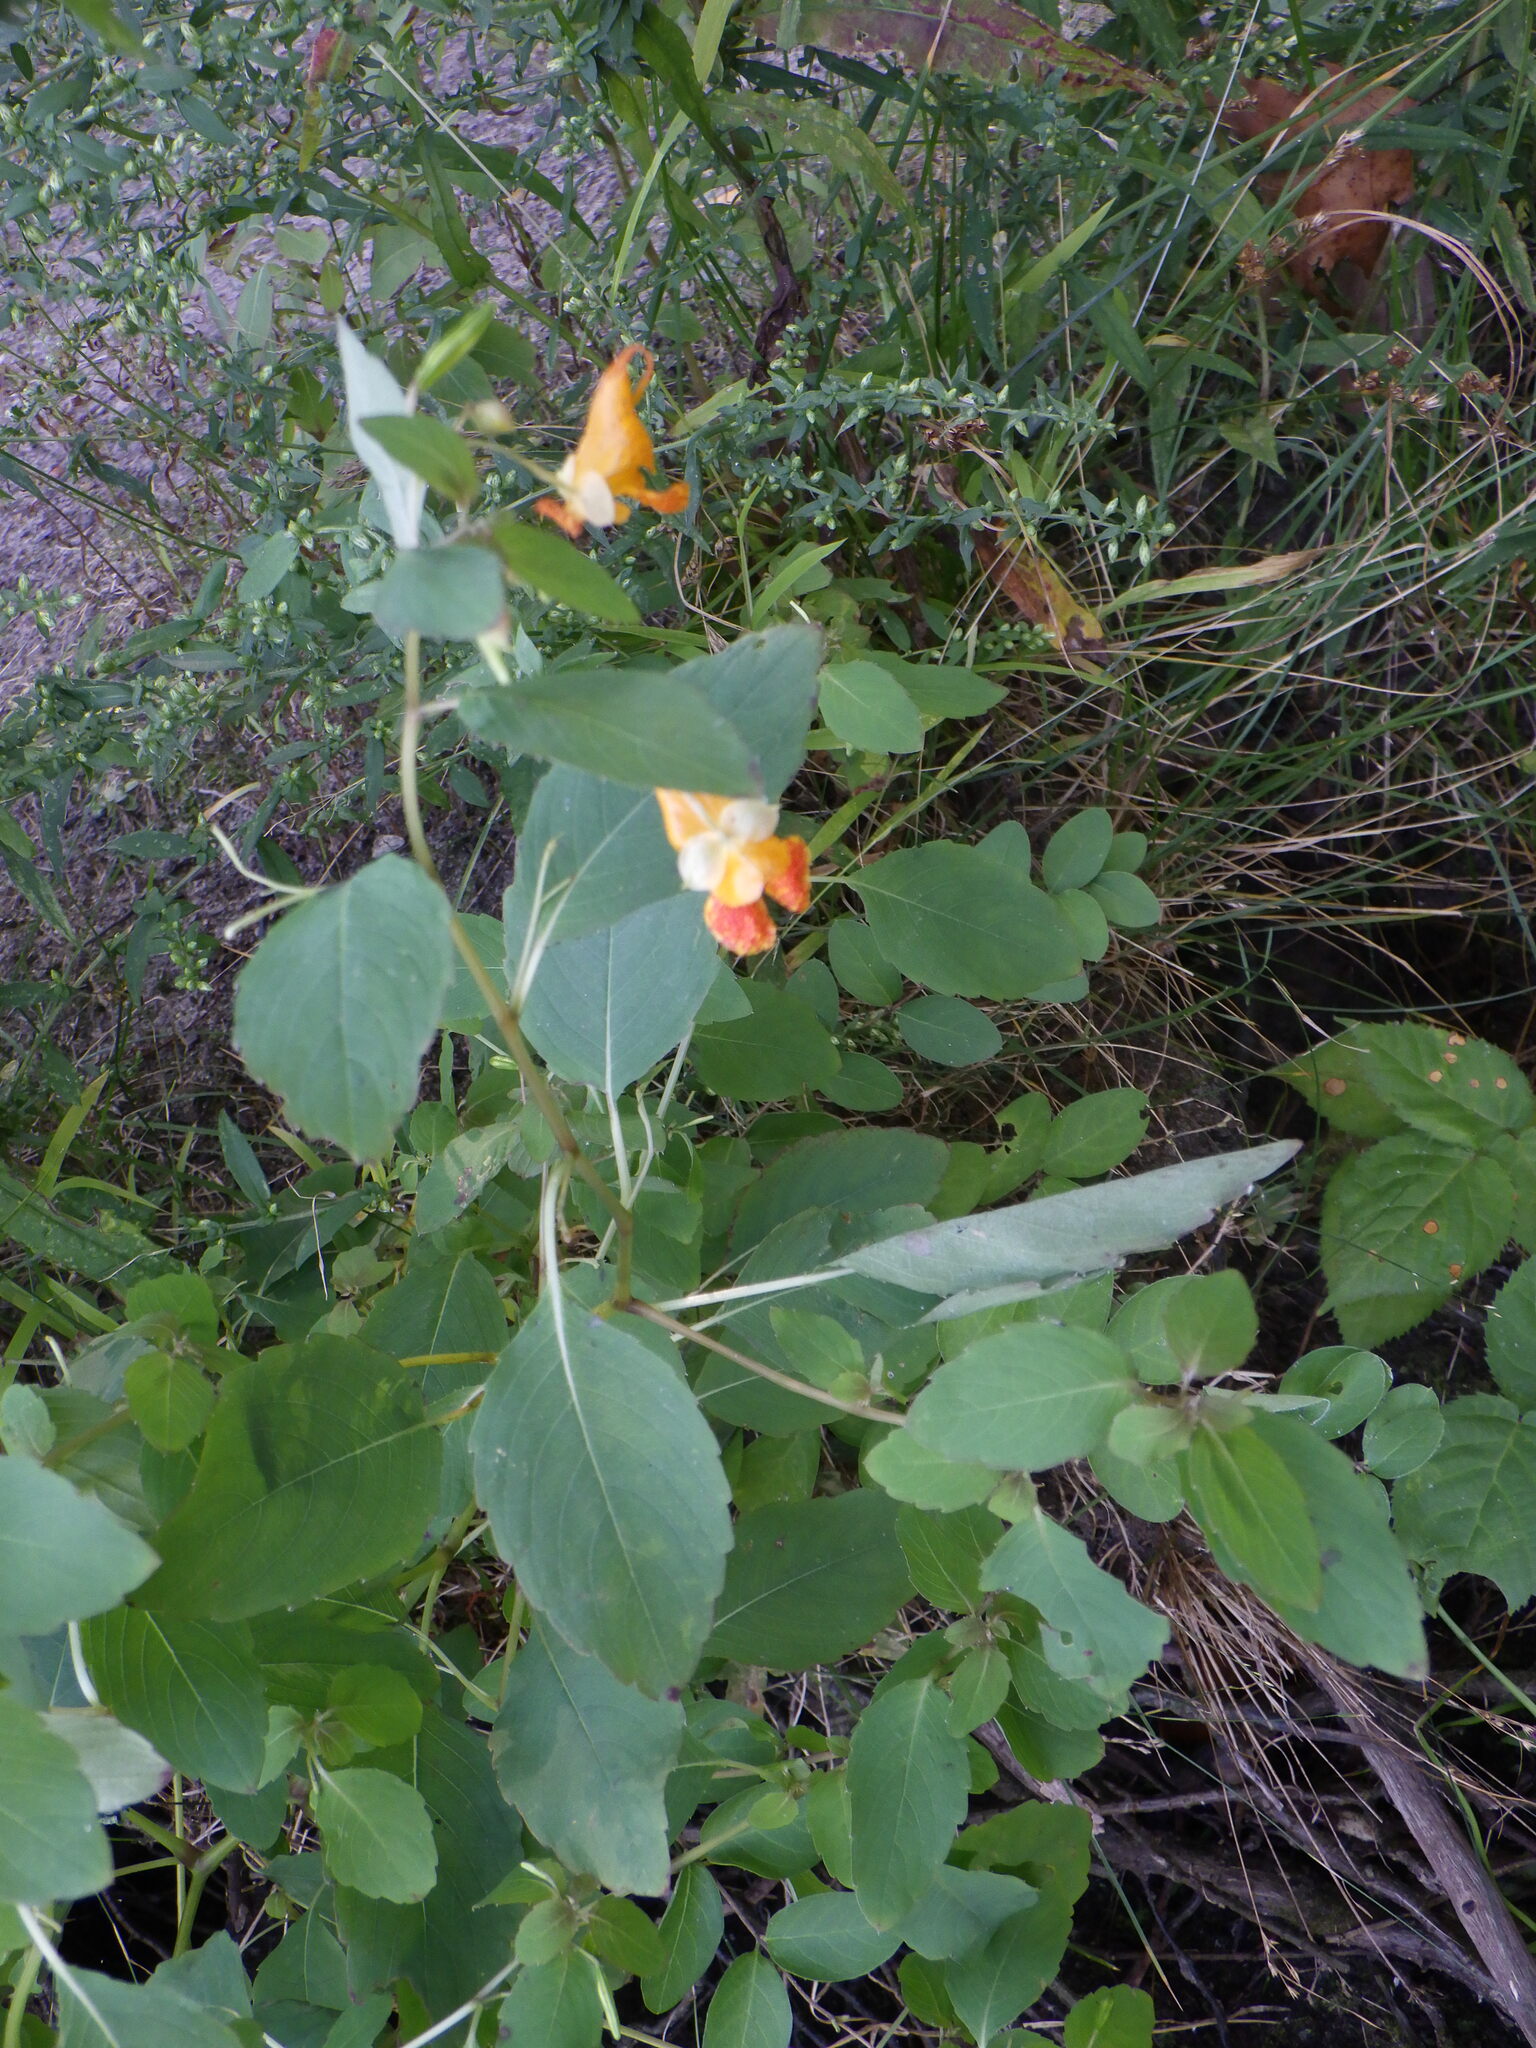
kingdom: Plantae
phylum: Tracheophyta
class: Magnoliopsida
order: Ericales
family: Balsaminaceae
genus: Impatiens
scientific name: Impatiens capensis
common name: Orange balsam
